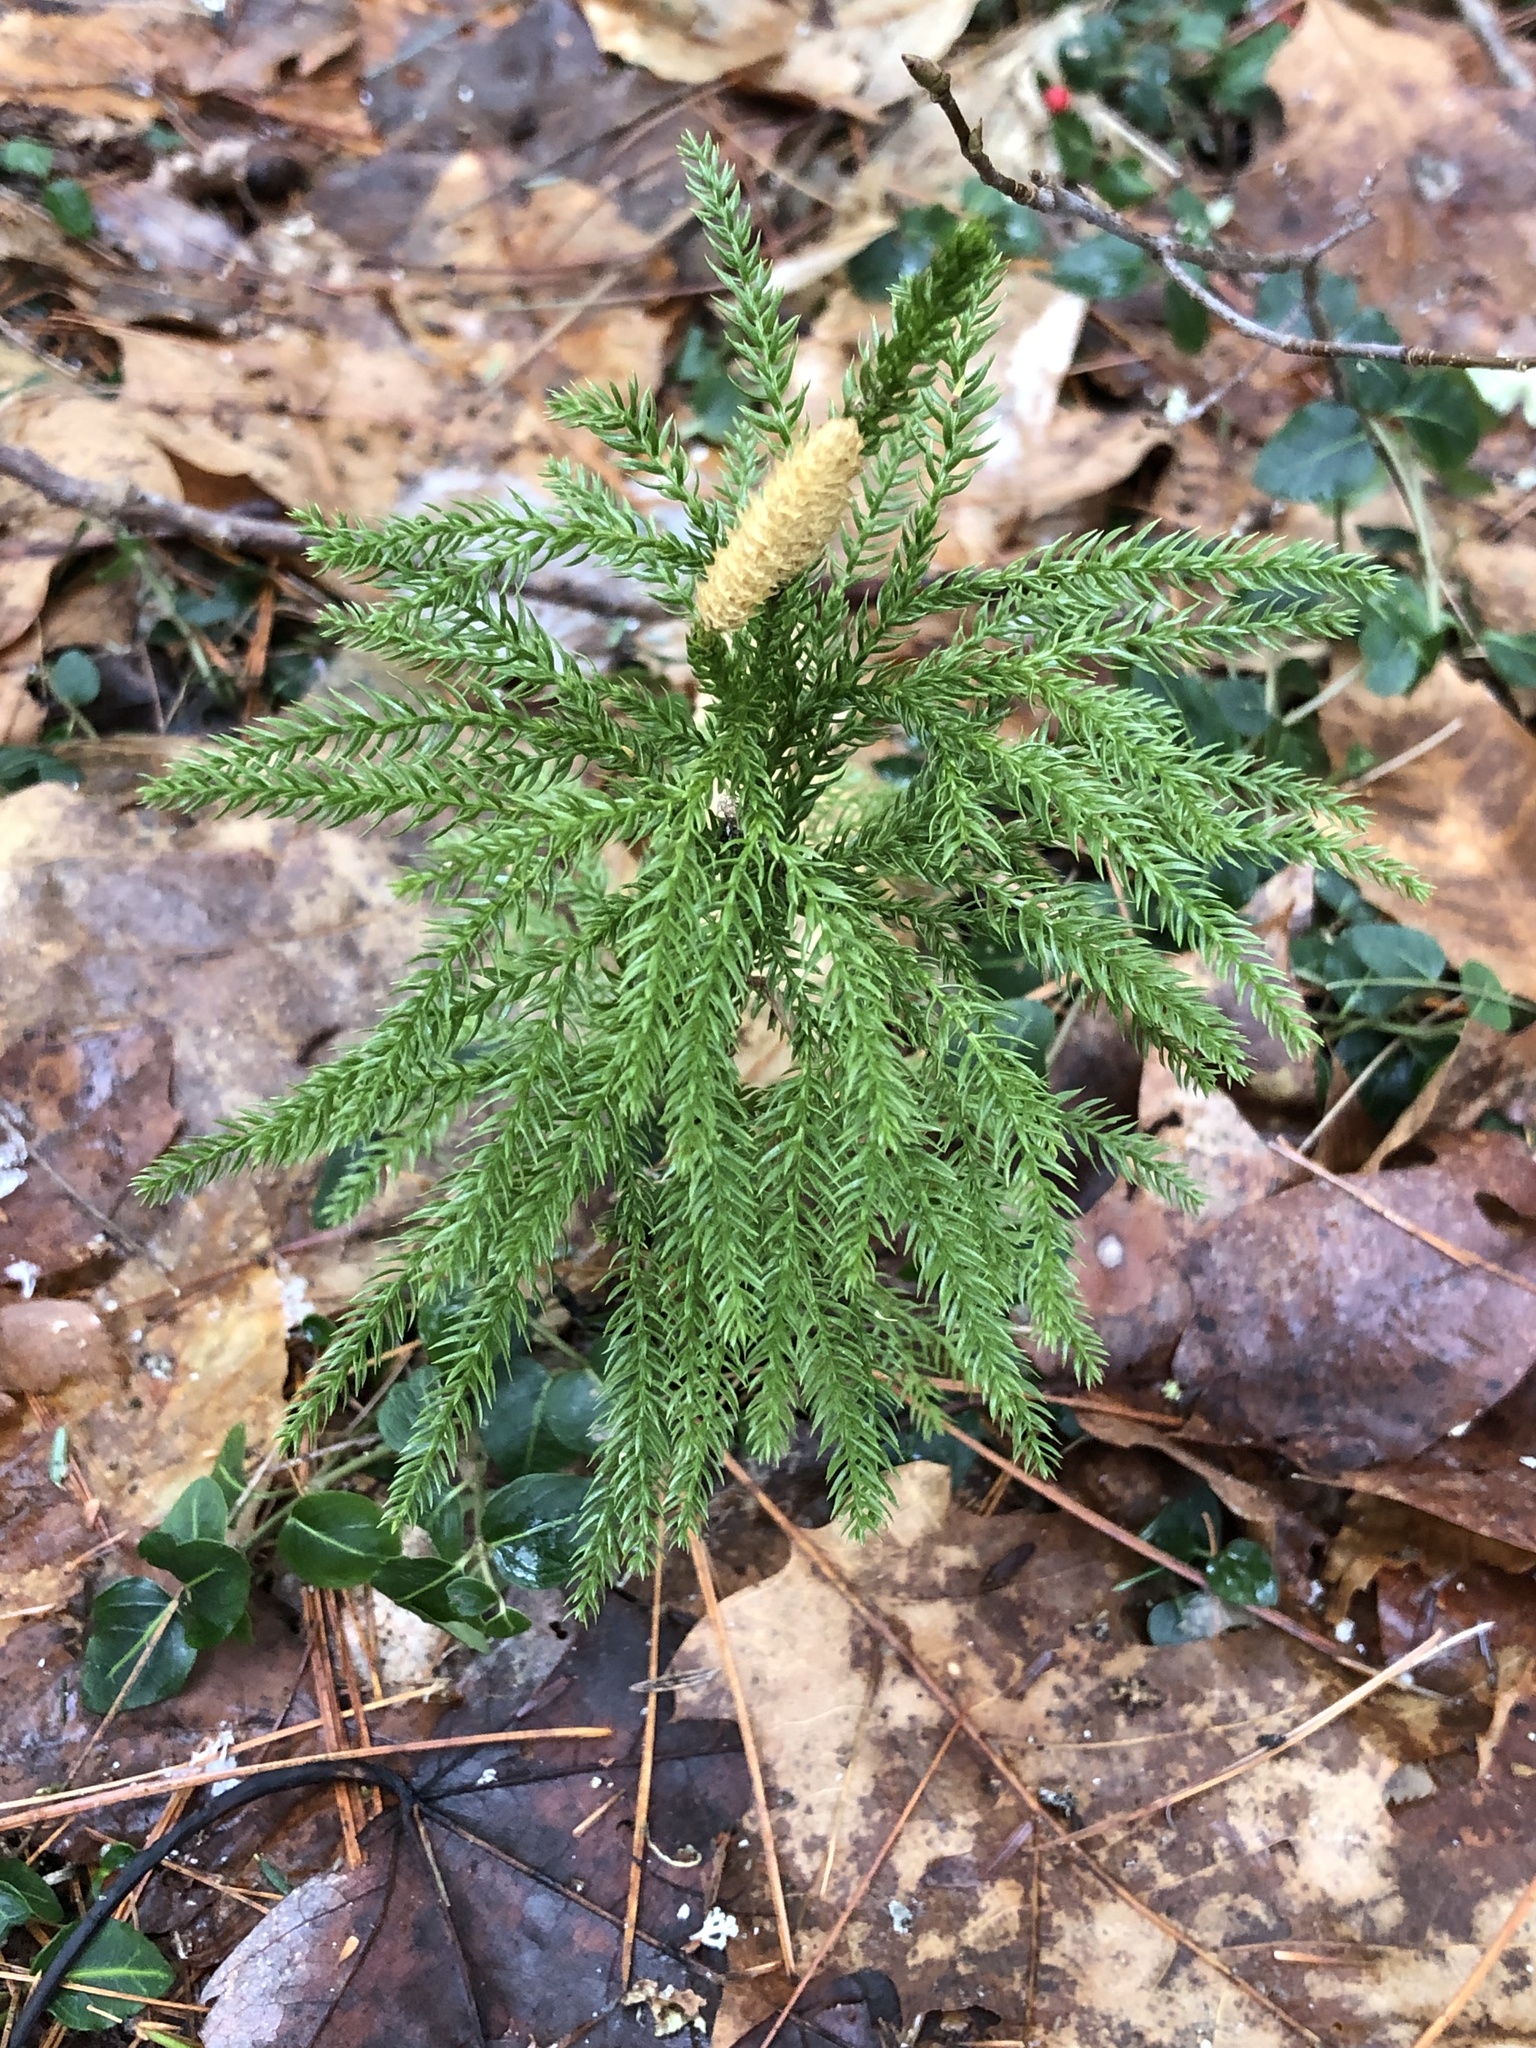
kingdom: Plantae
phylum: Tracheophyta
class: Lycopodiopsida
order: Lycopodiales
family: Lycopodiaceae
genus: Dendrolycopodium
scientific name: Dendrolycopodium obscurum
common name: Common ground-pine
